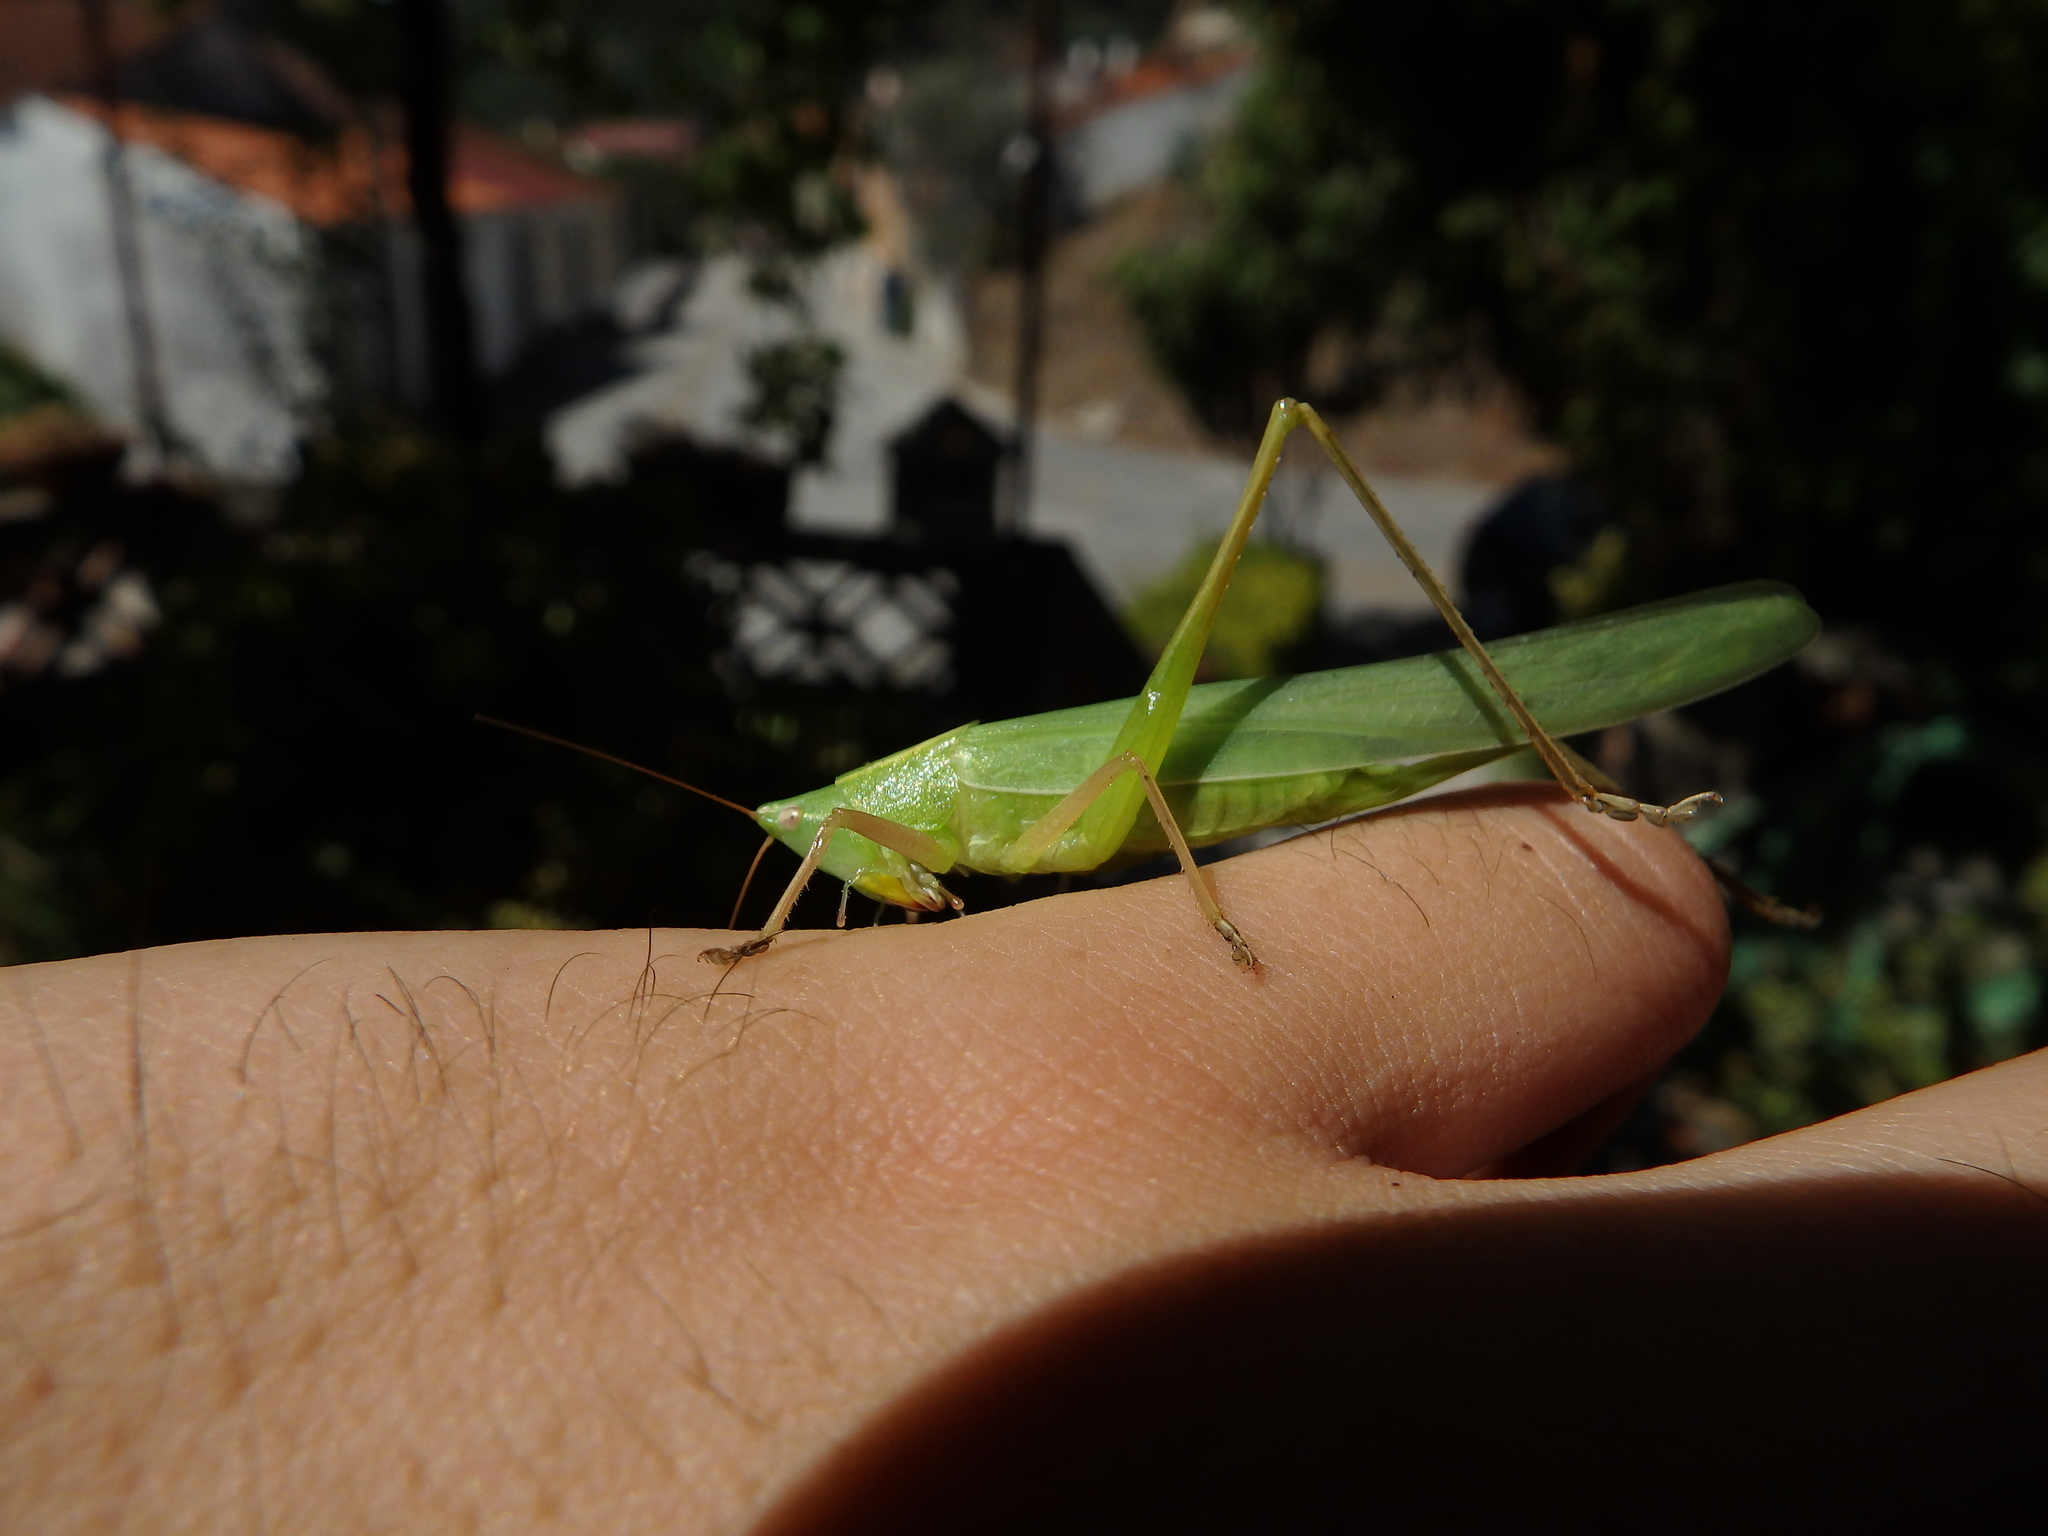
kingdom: Animalia
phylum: Arthropoda
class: Insecta
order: Orthoptera
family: Tettigoniidae
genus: Ruspolia
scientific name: Ruspolia nitidula
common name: Large conehead
